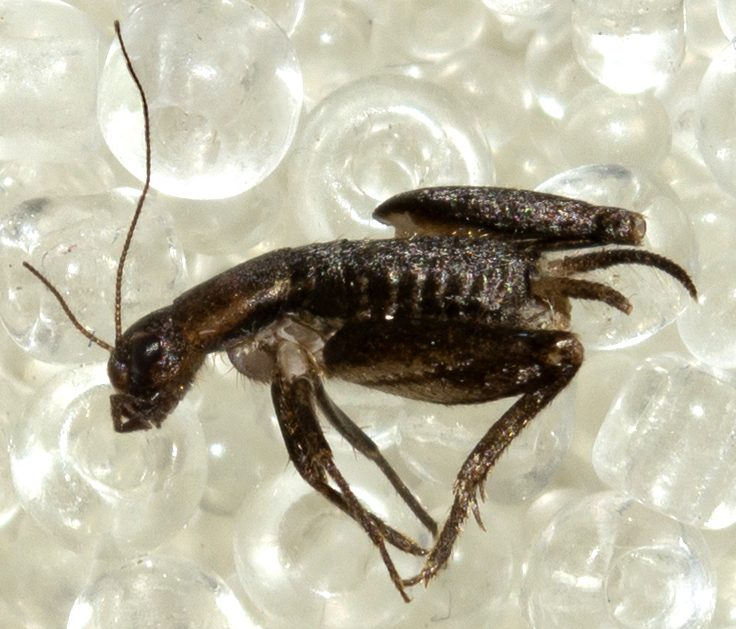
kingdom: Animalia
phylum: Arthropoda
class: Insecta
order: Orthoptera
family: Mogoplistidae
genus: Mogoplistes
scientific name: Mogoplistes brunneus
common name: Brown scale-cricket
